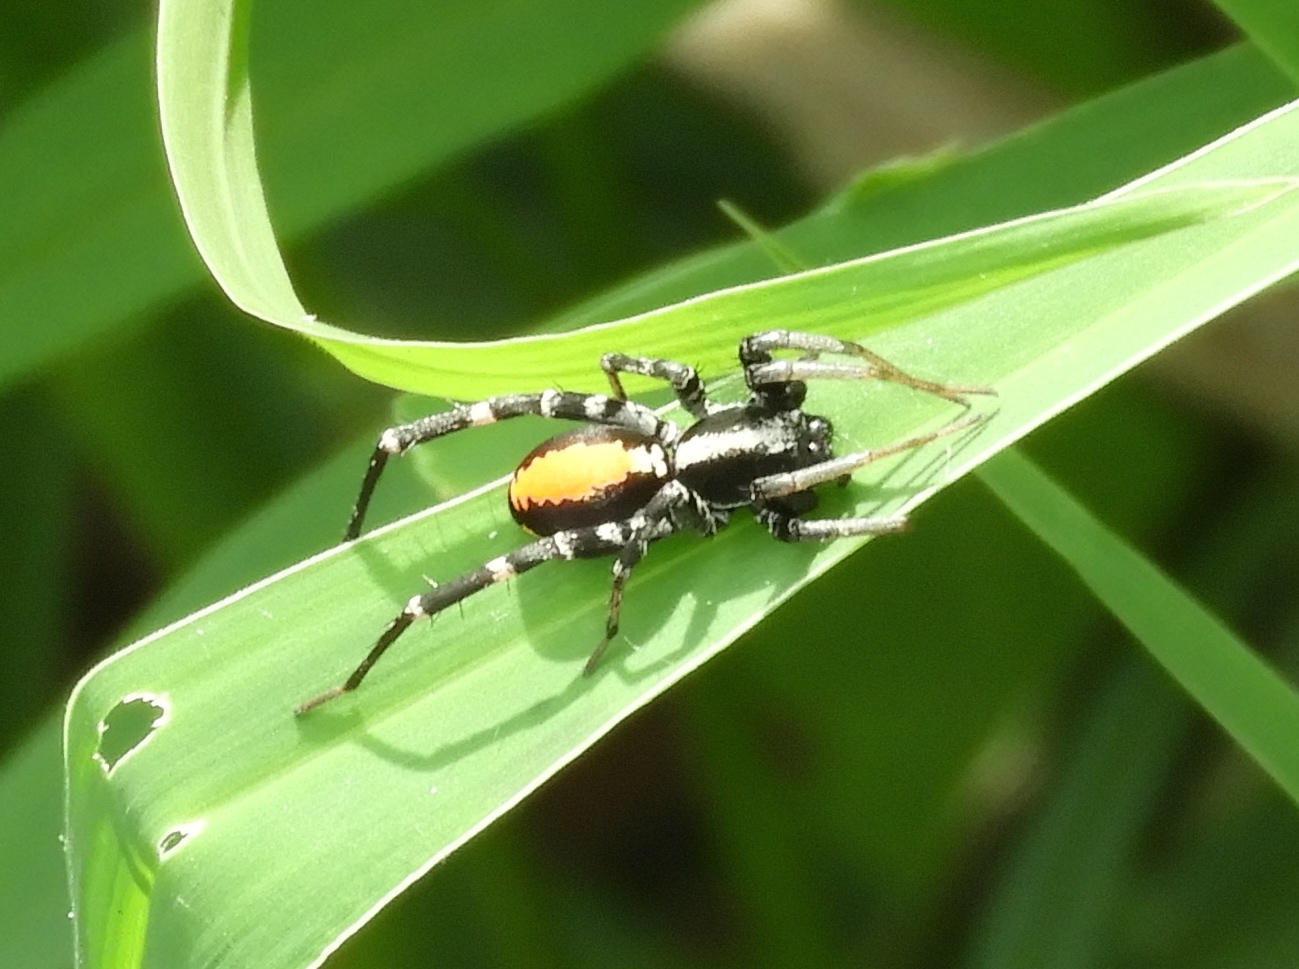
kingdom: Animalia
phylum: Arthropoda
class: Arachnida
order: Araneae
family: Corinnidae
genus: Castianeira
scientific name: Castianeira
